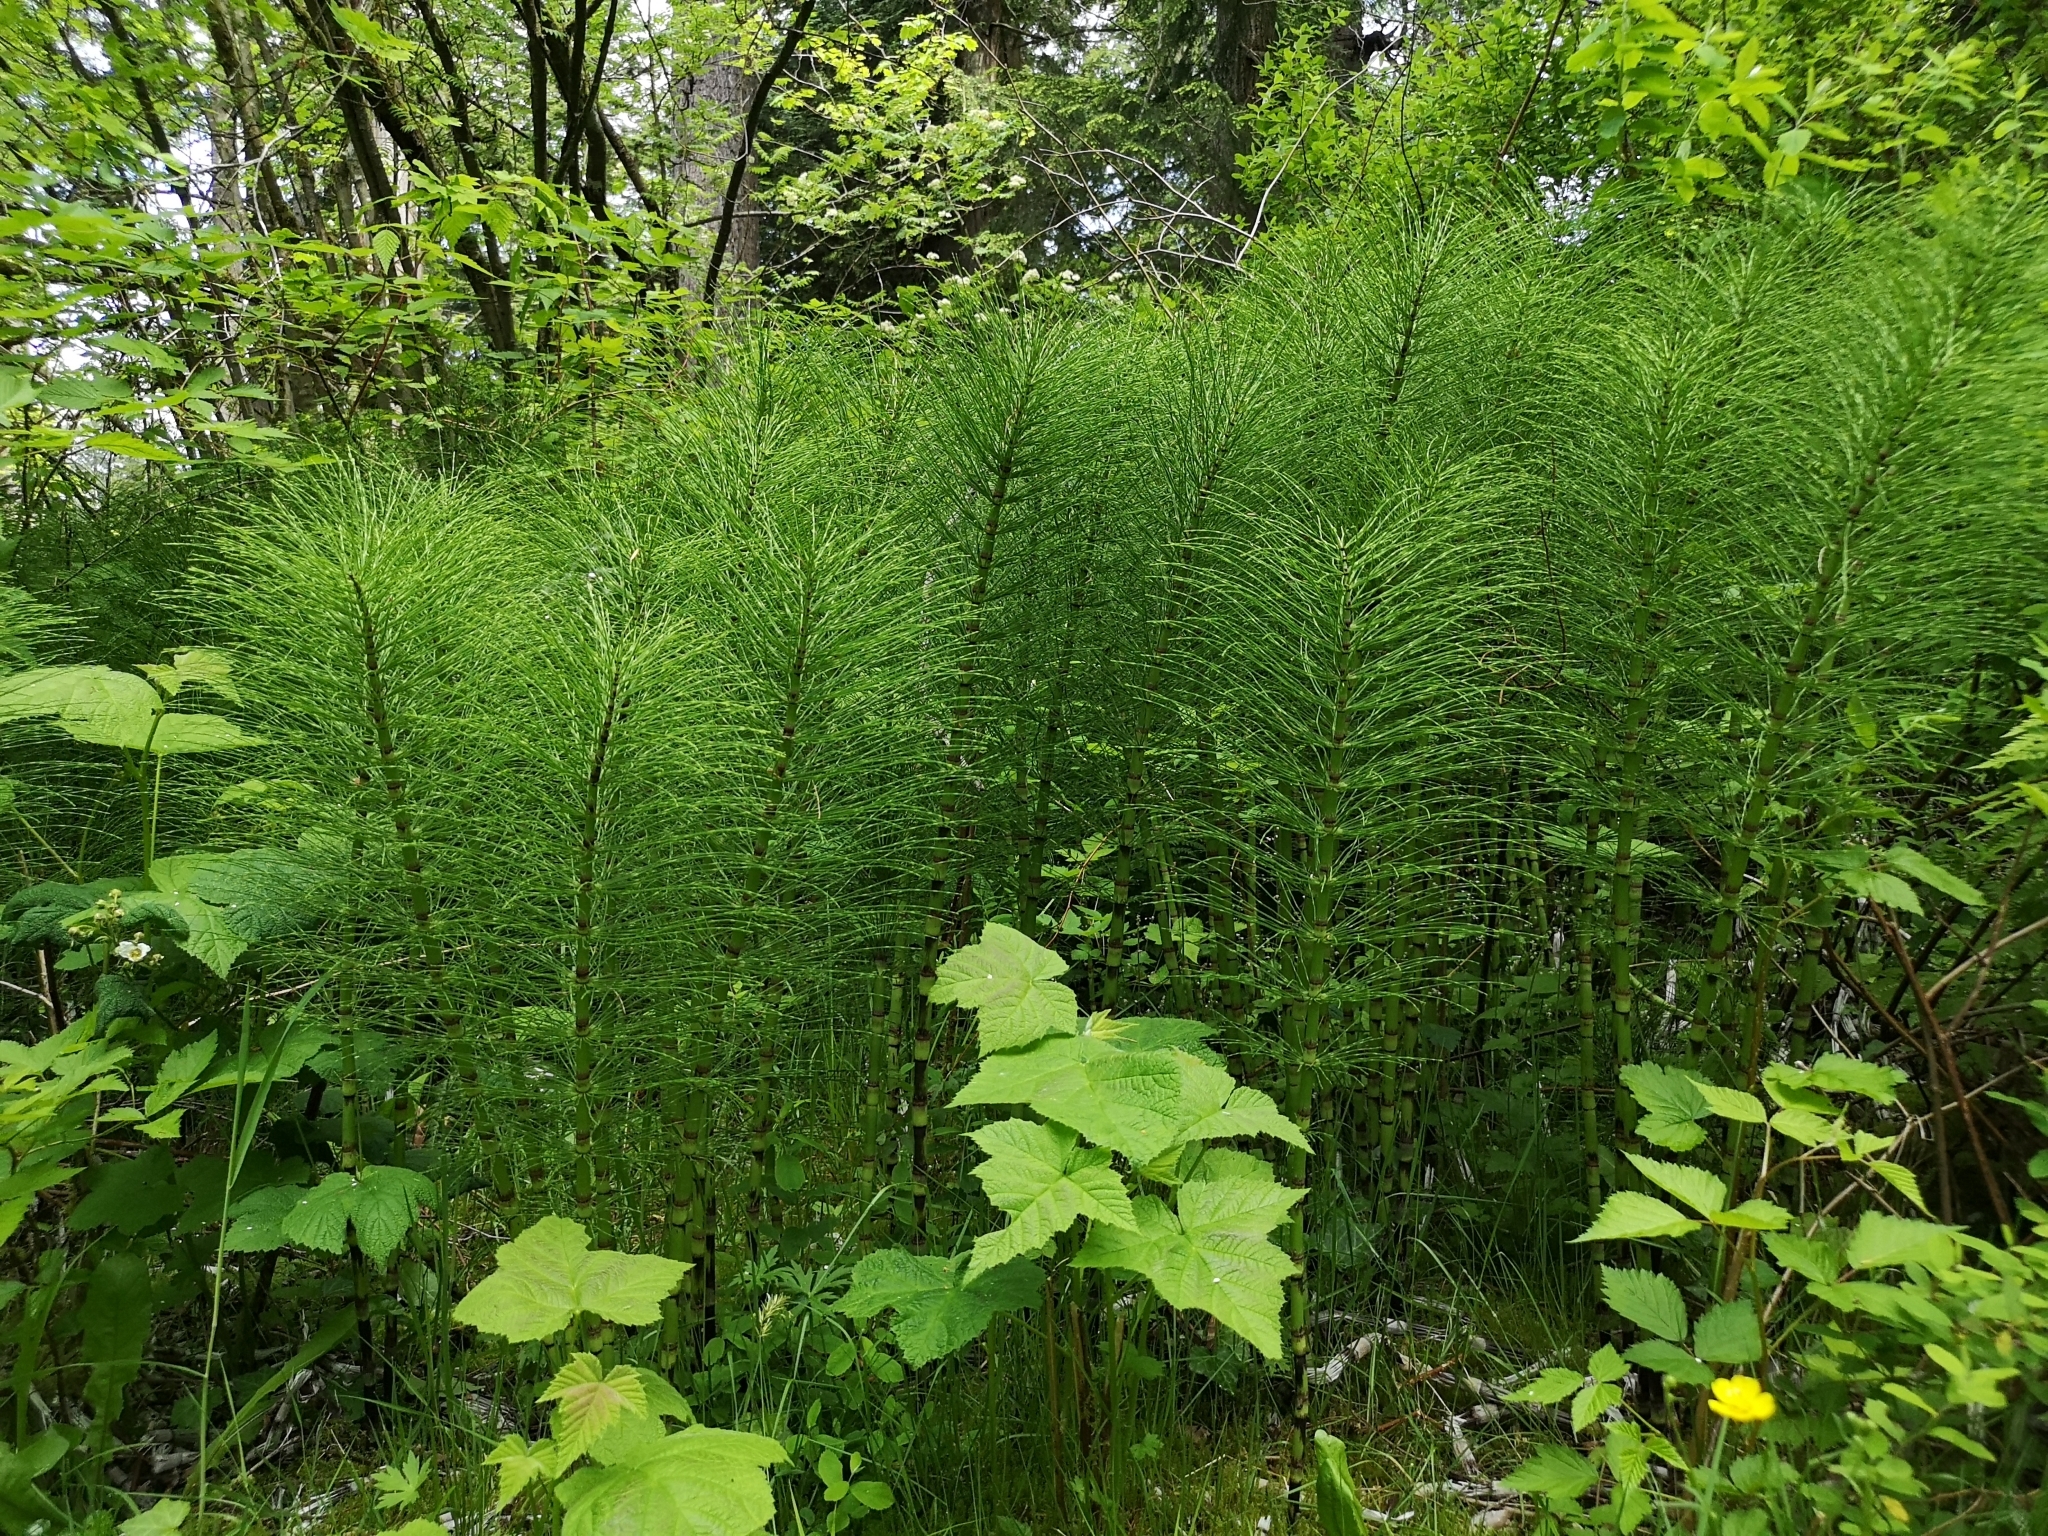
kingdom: Plantae
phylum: Tracheophyta
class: Polypodiopsida
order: Equisetales
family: Equisetaceae
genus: Equisetum
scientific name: Equisetum telmateia
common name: Great horsetail
